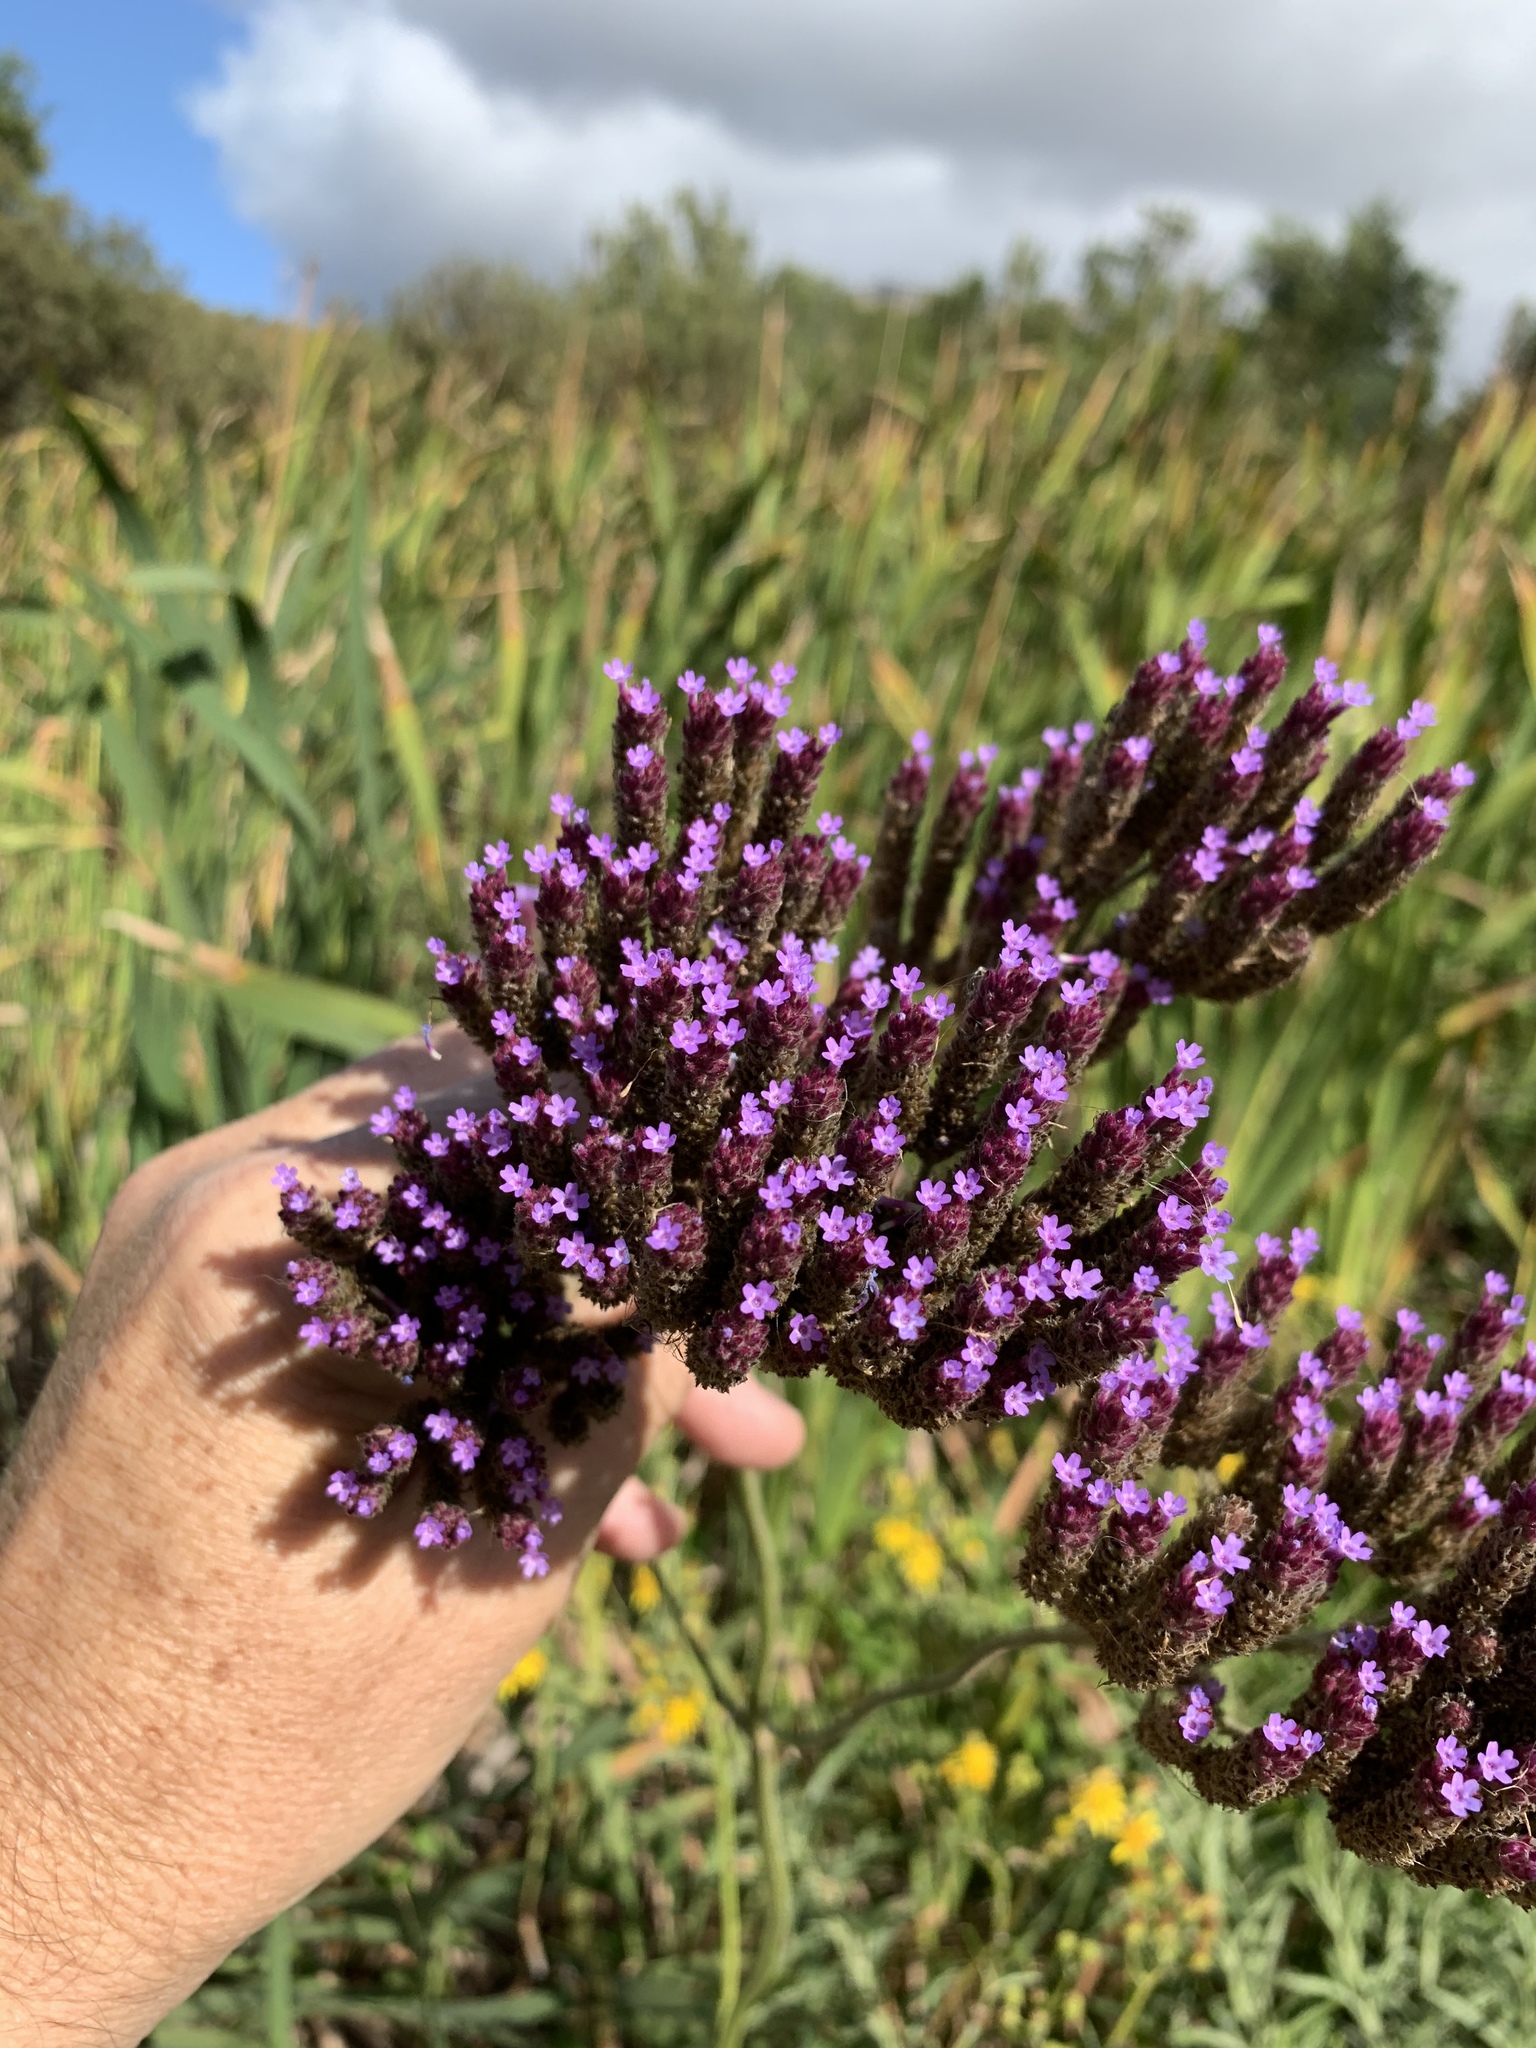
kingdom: Plantae
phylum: Tracheophyta
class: Magnoliopsida
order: Lamiales
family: Verbenaceae
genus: Verbena
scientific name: Verbena bonariensis
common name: Purpletop vervain
